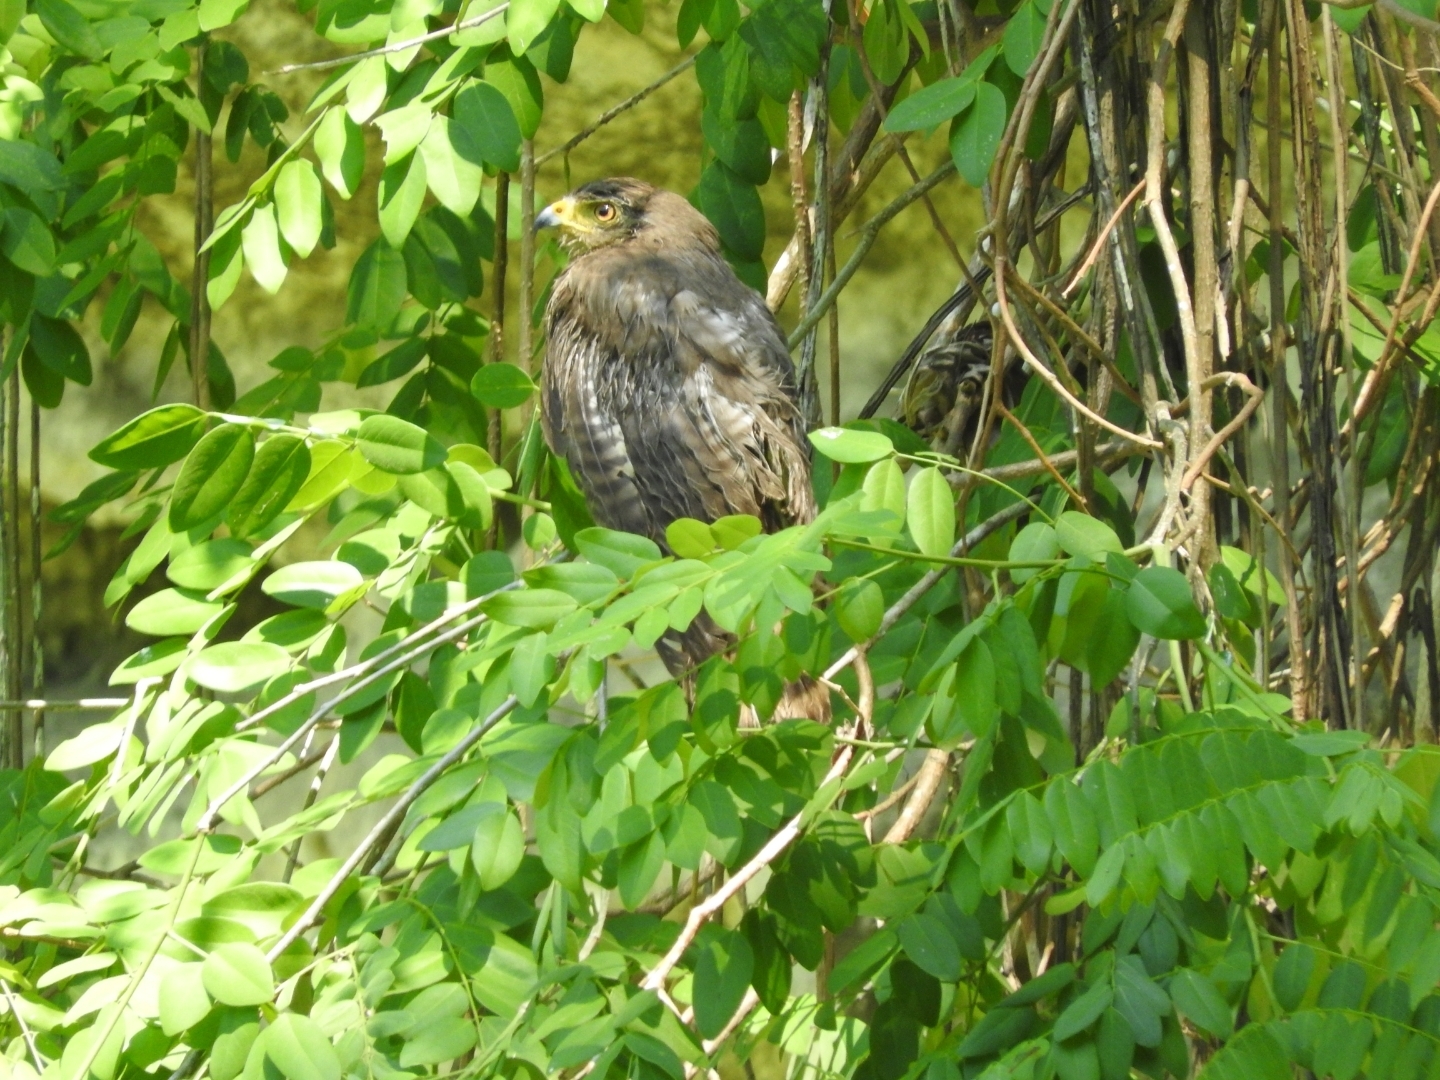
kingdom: Animalia
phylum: Chordata
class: Aves
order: Accipitriformes
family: Accipitridae
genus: Rupornis
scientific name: Rupornis magnirostris
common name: Roadside hawk
